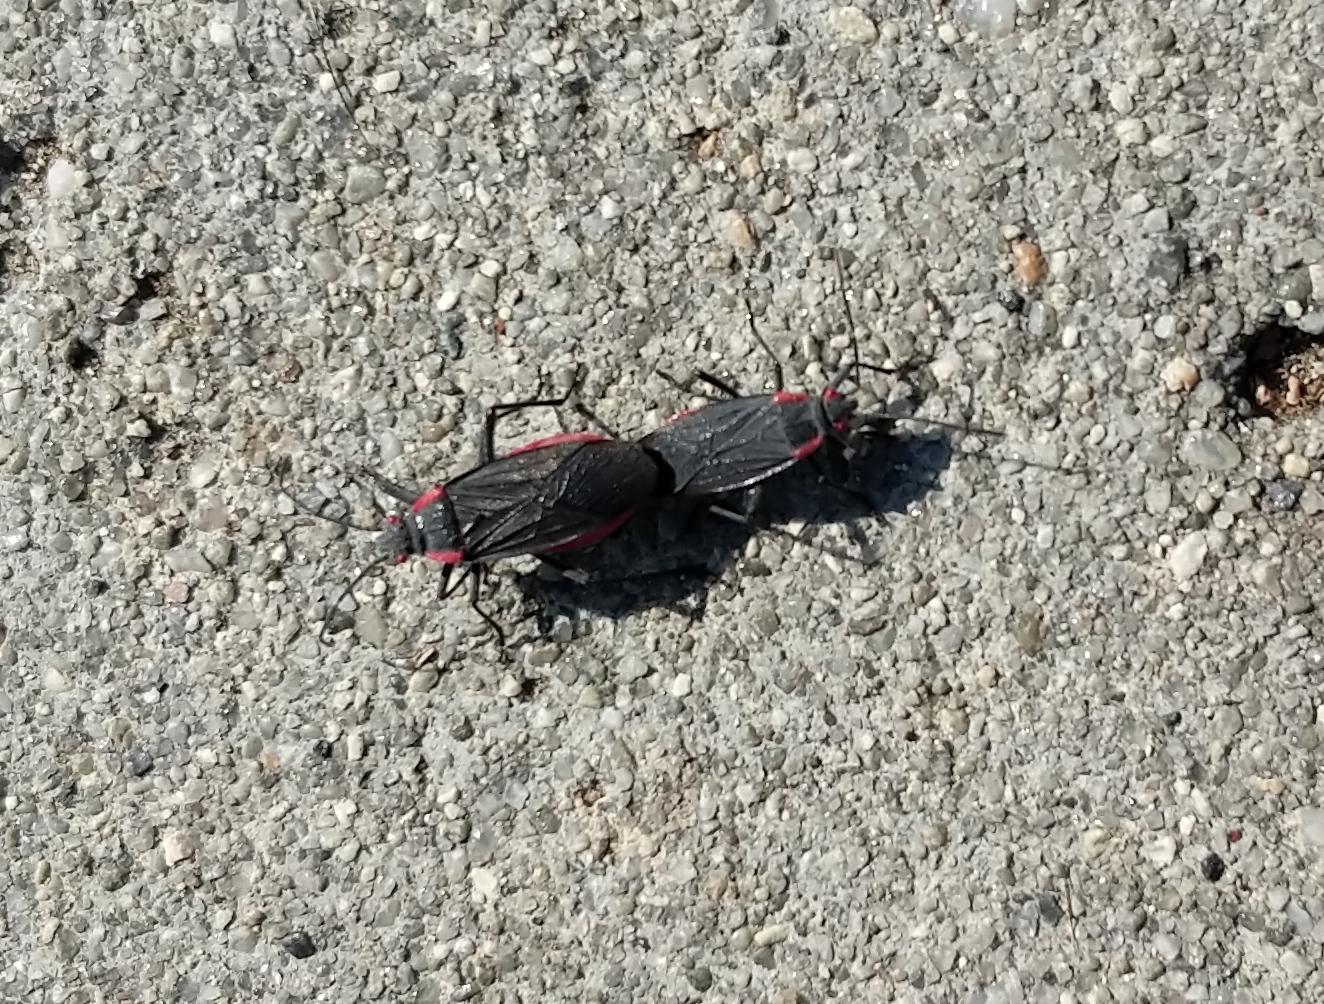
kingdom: Animalia
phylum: Arthropoda
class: Insecta
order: Hemiptera
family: Rhopalidae
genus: Jadera
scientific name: Jadera haematoloma
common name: Red-shouldered bug
